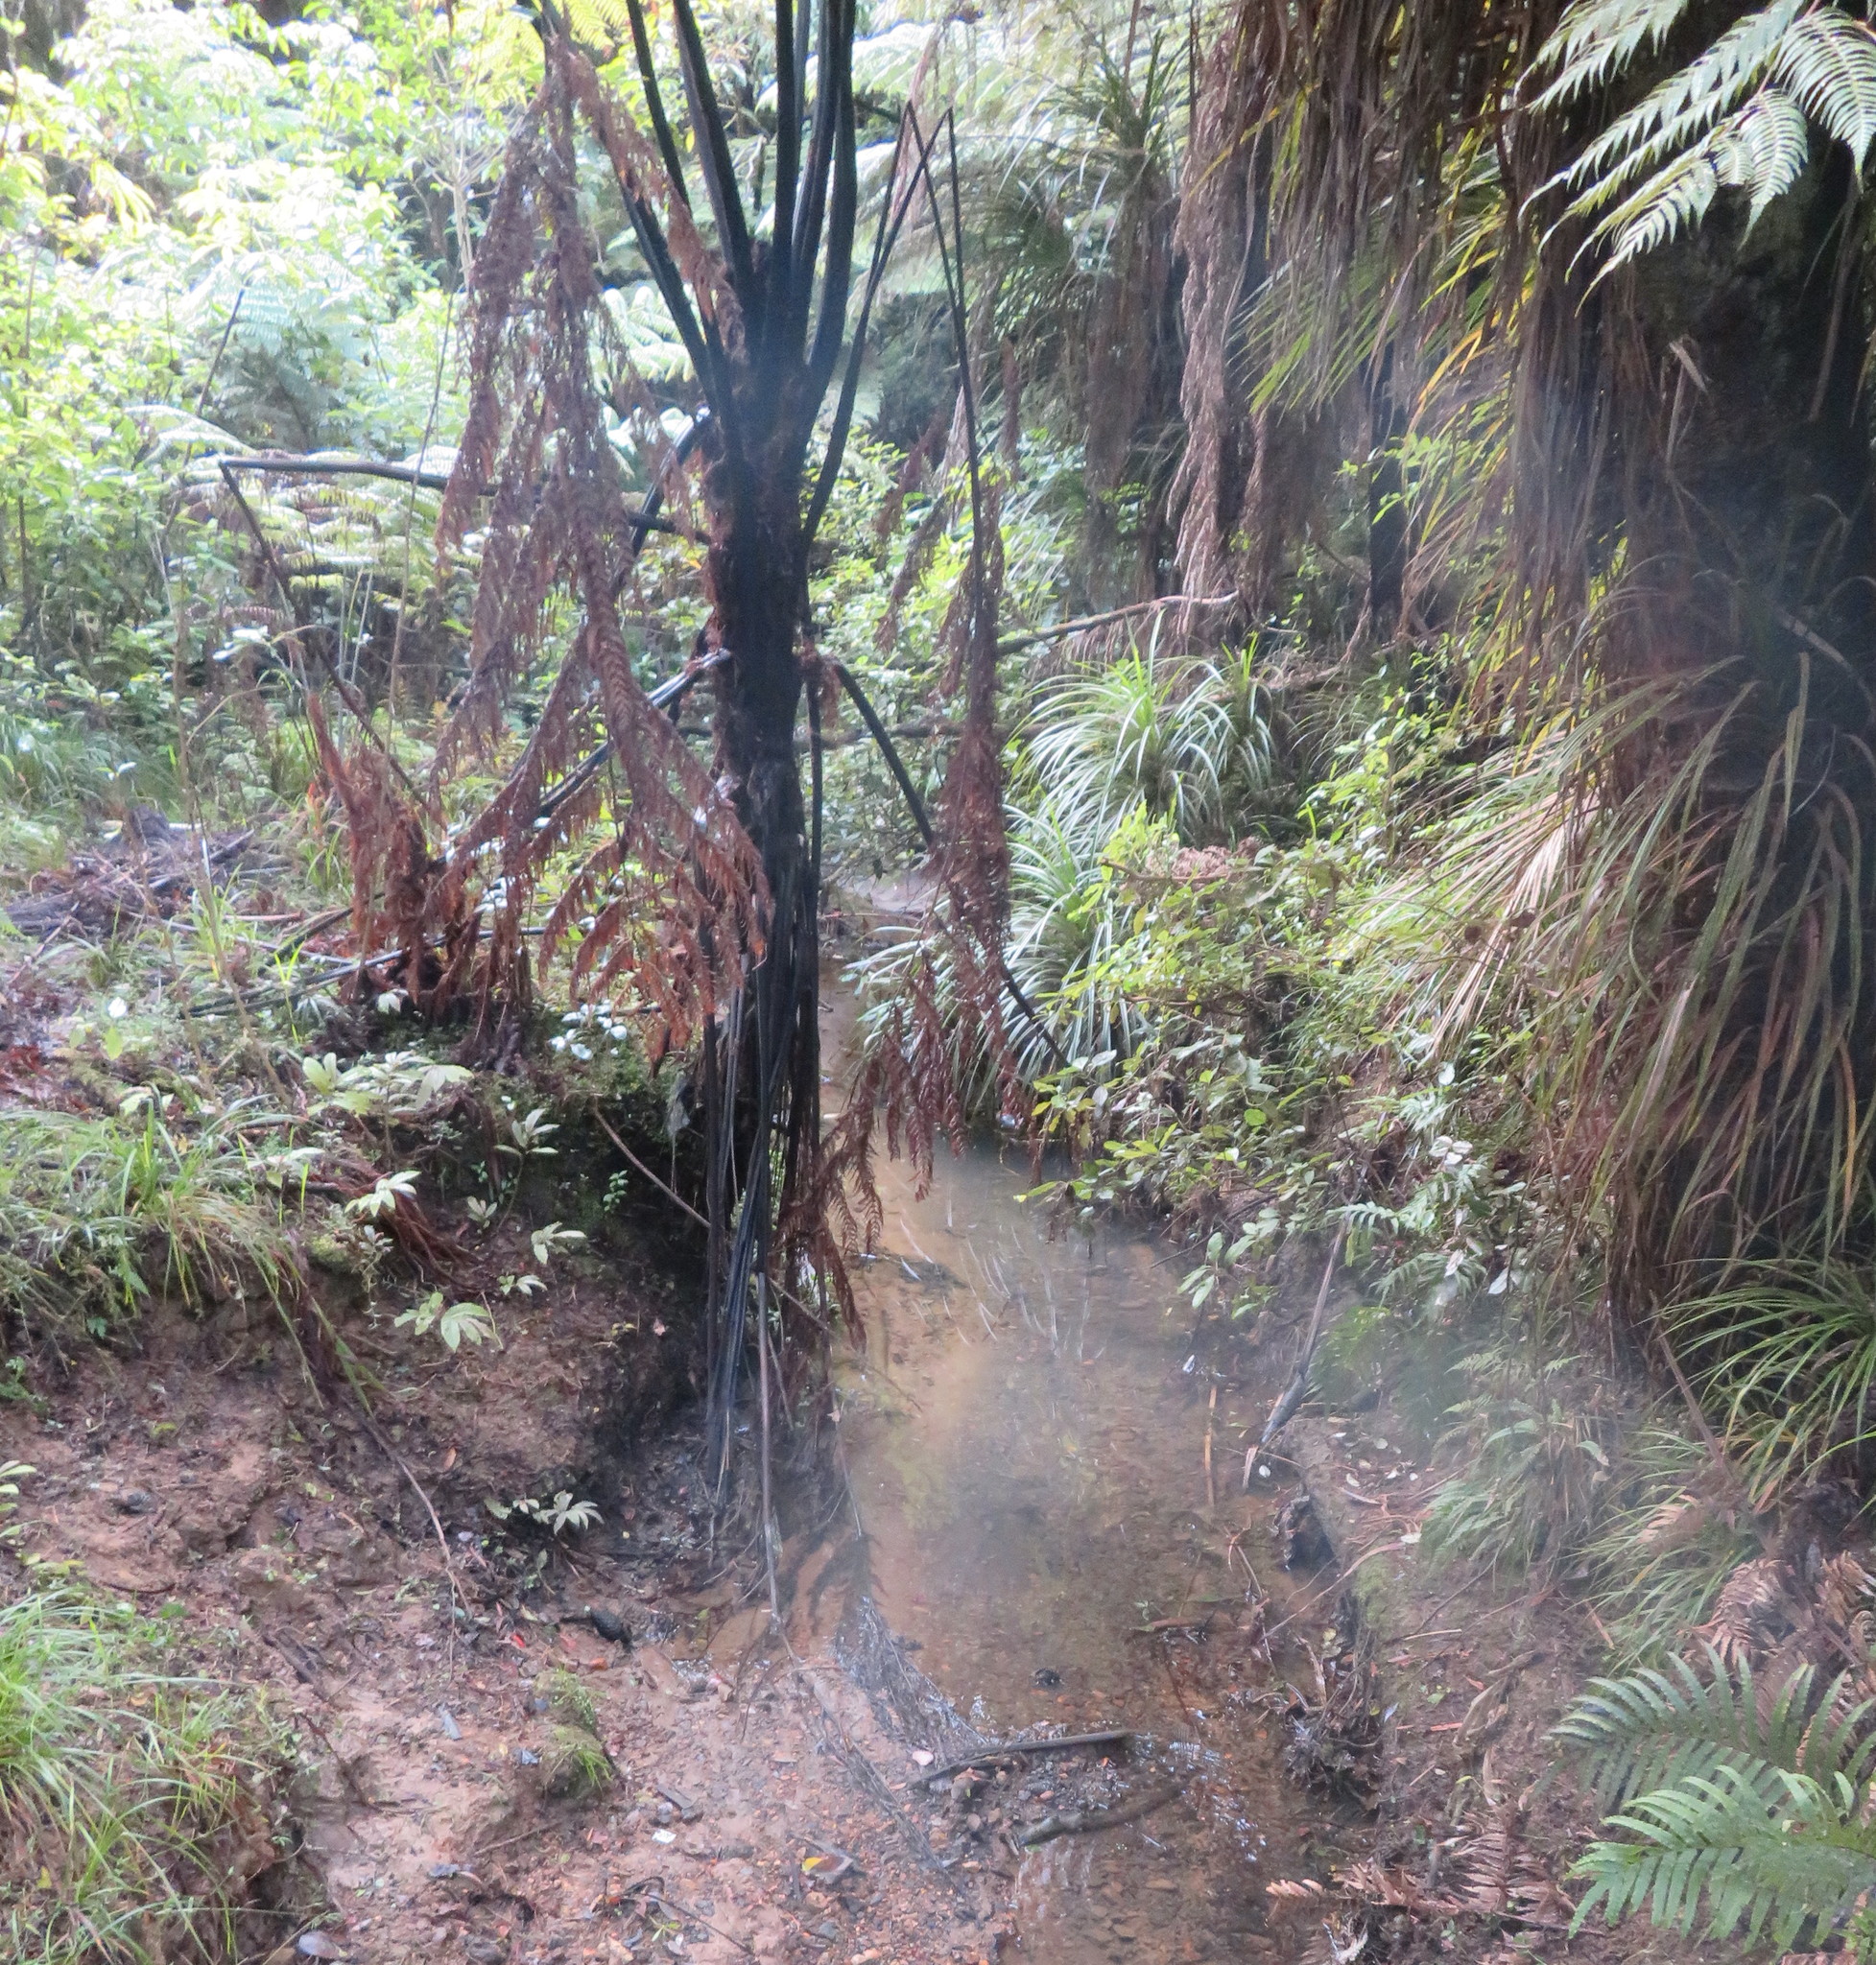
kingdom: Plantae
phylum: Tracheophyta
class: Liliopsida
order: Poales
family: Poaceae
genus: Oplismenus
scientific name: Oplismenus hirtellus
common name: Basketgrass
